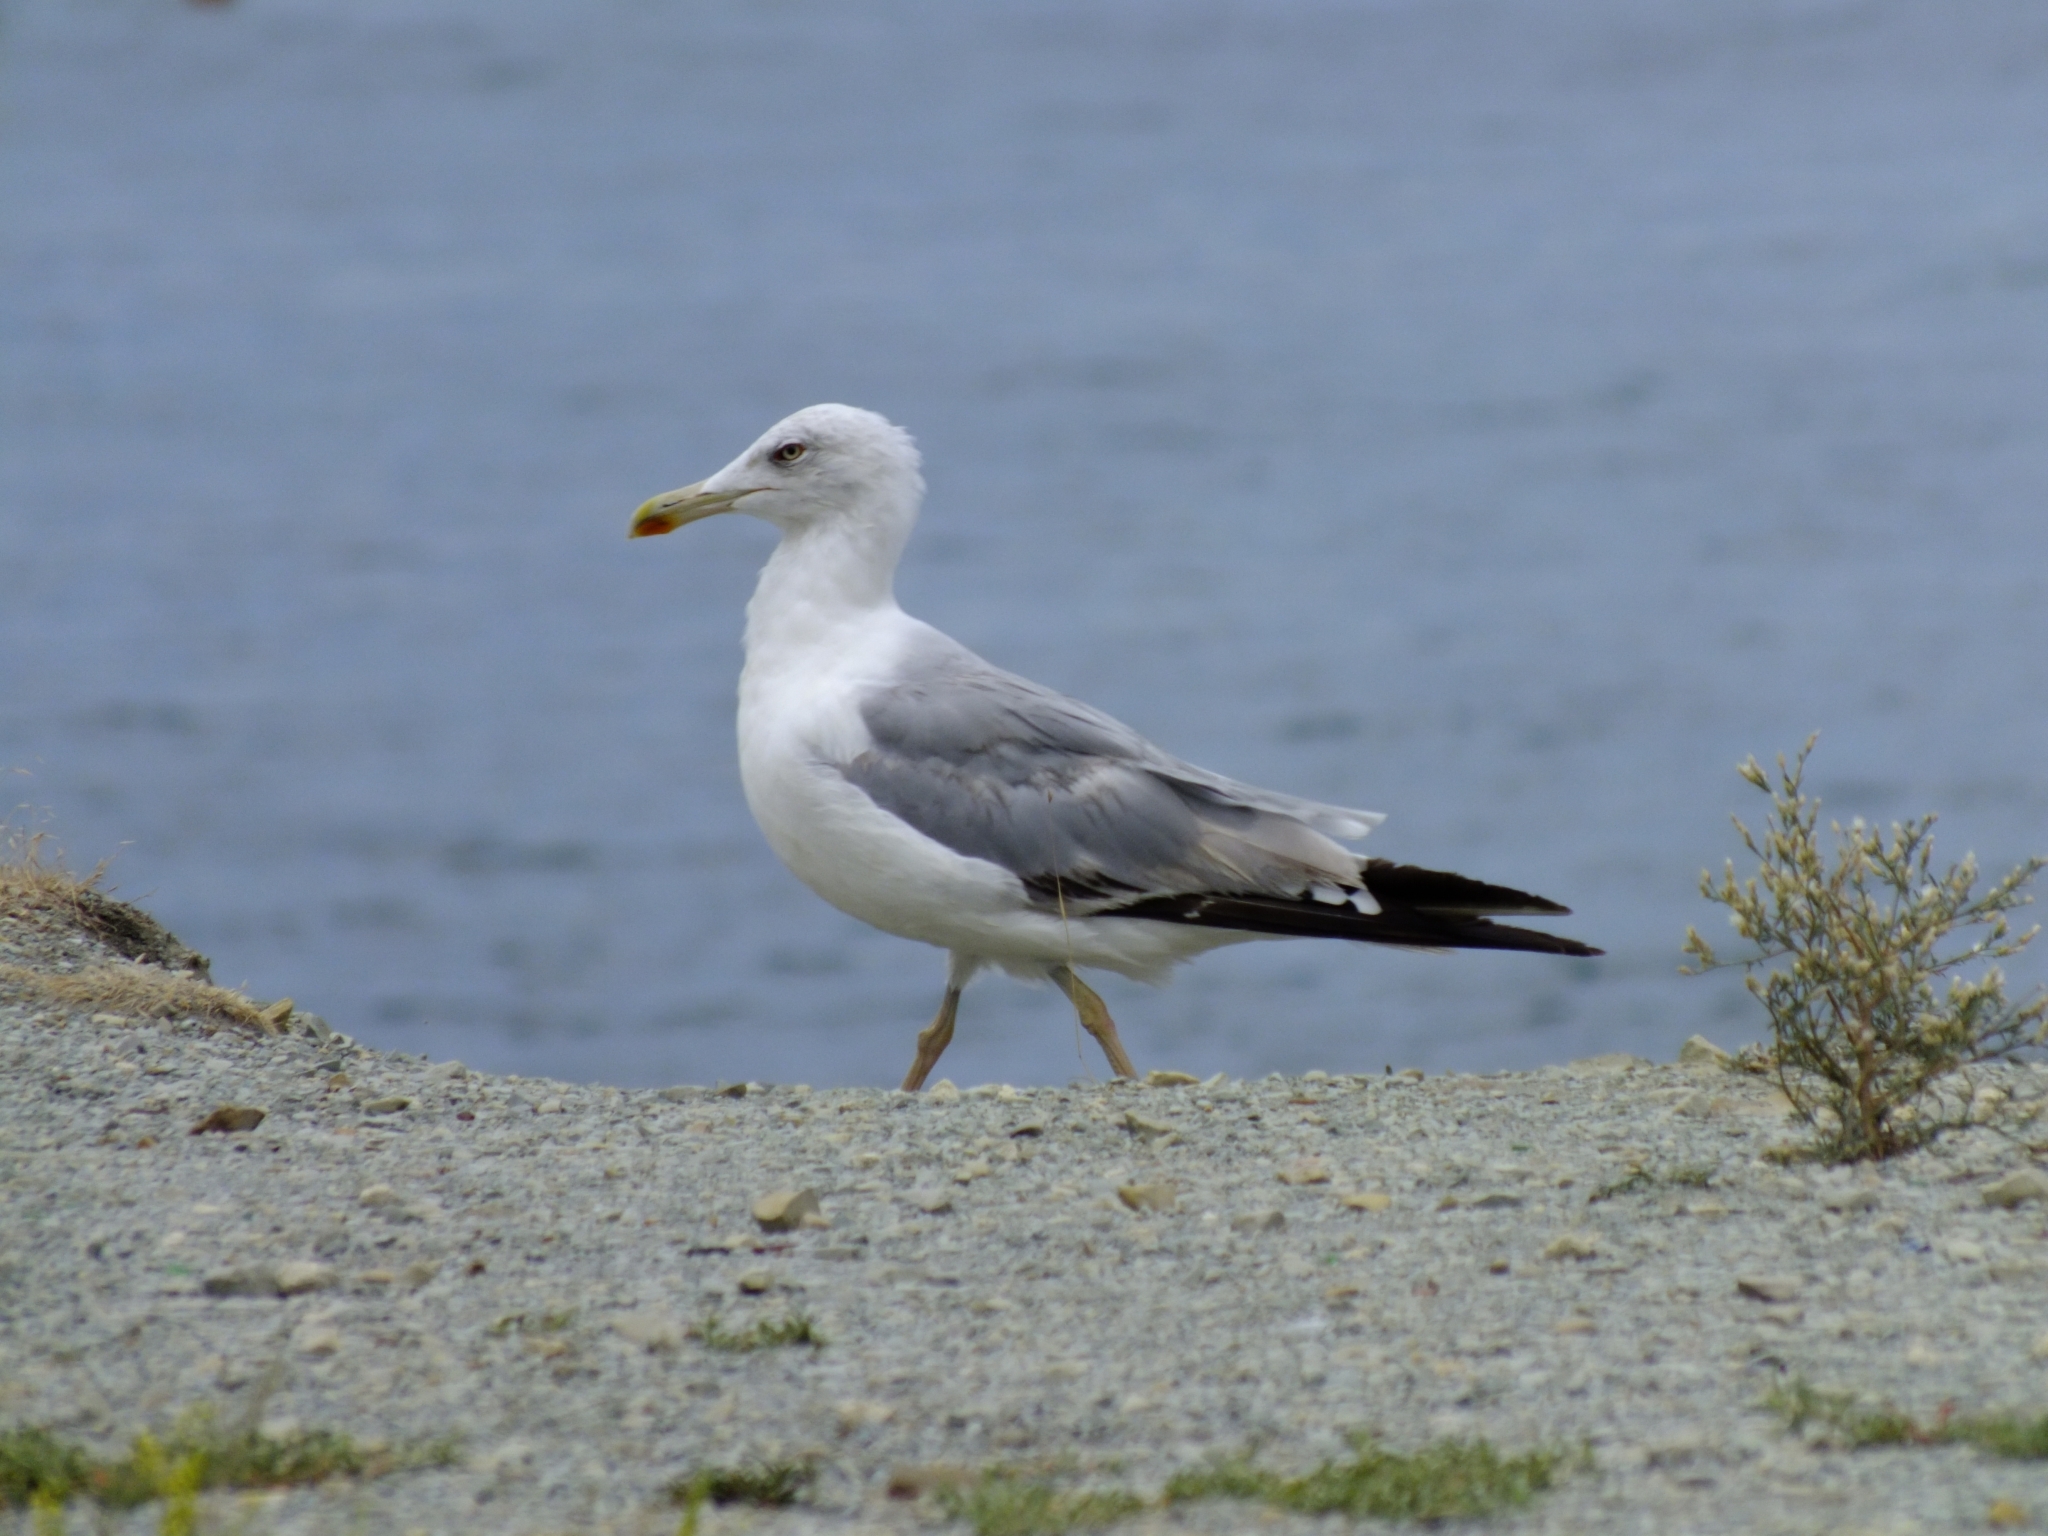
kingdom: Animalia
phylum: Chordata
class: Aves
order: Charadriiformes
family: Laridae
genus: Larus
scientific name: Larus michahellis
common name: Yellow-legged gull
